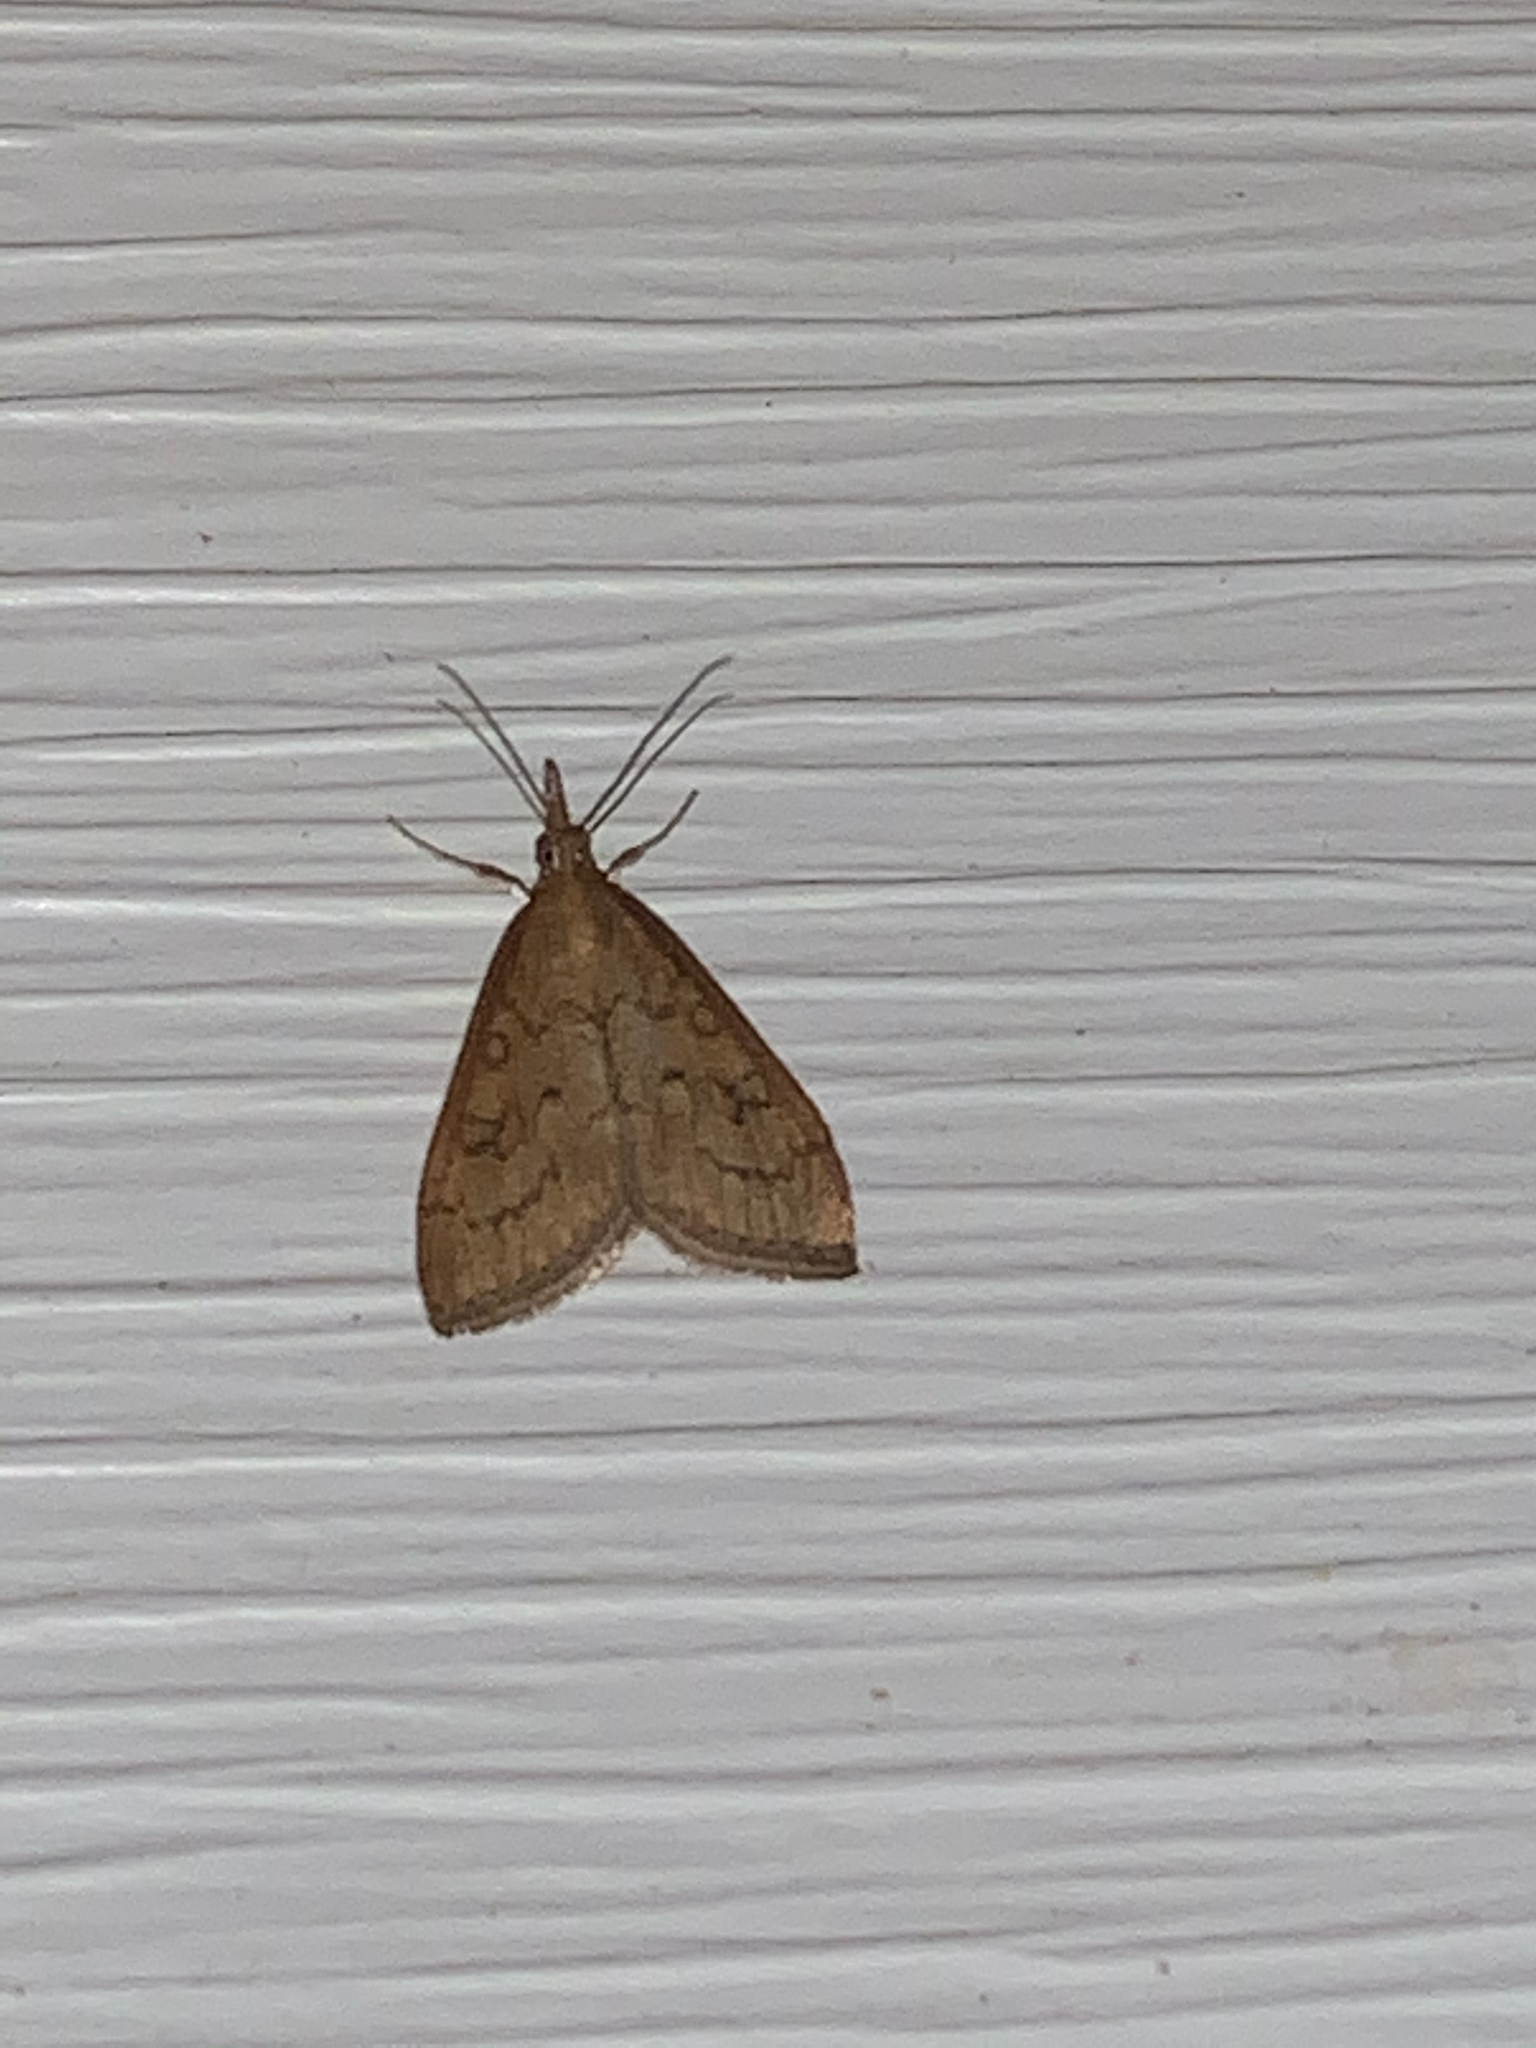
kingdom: Animalia
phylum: Arthropoda
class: Insecta
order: Lepidoptera
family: Crambidae
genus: Udea
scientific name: Udea rubigalis
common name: Celery leaftier moth
